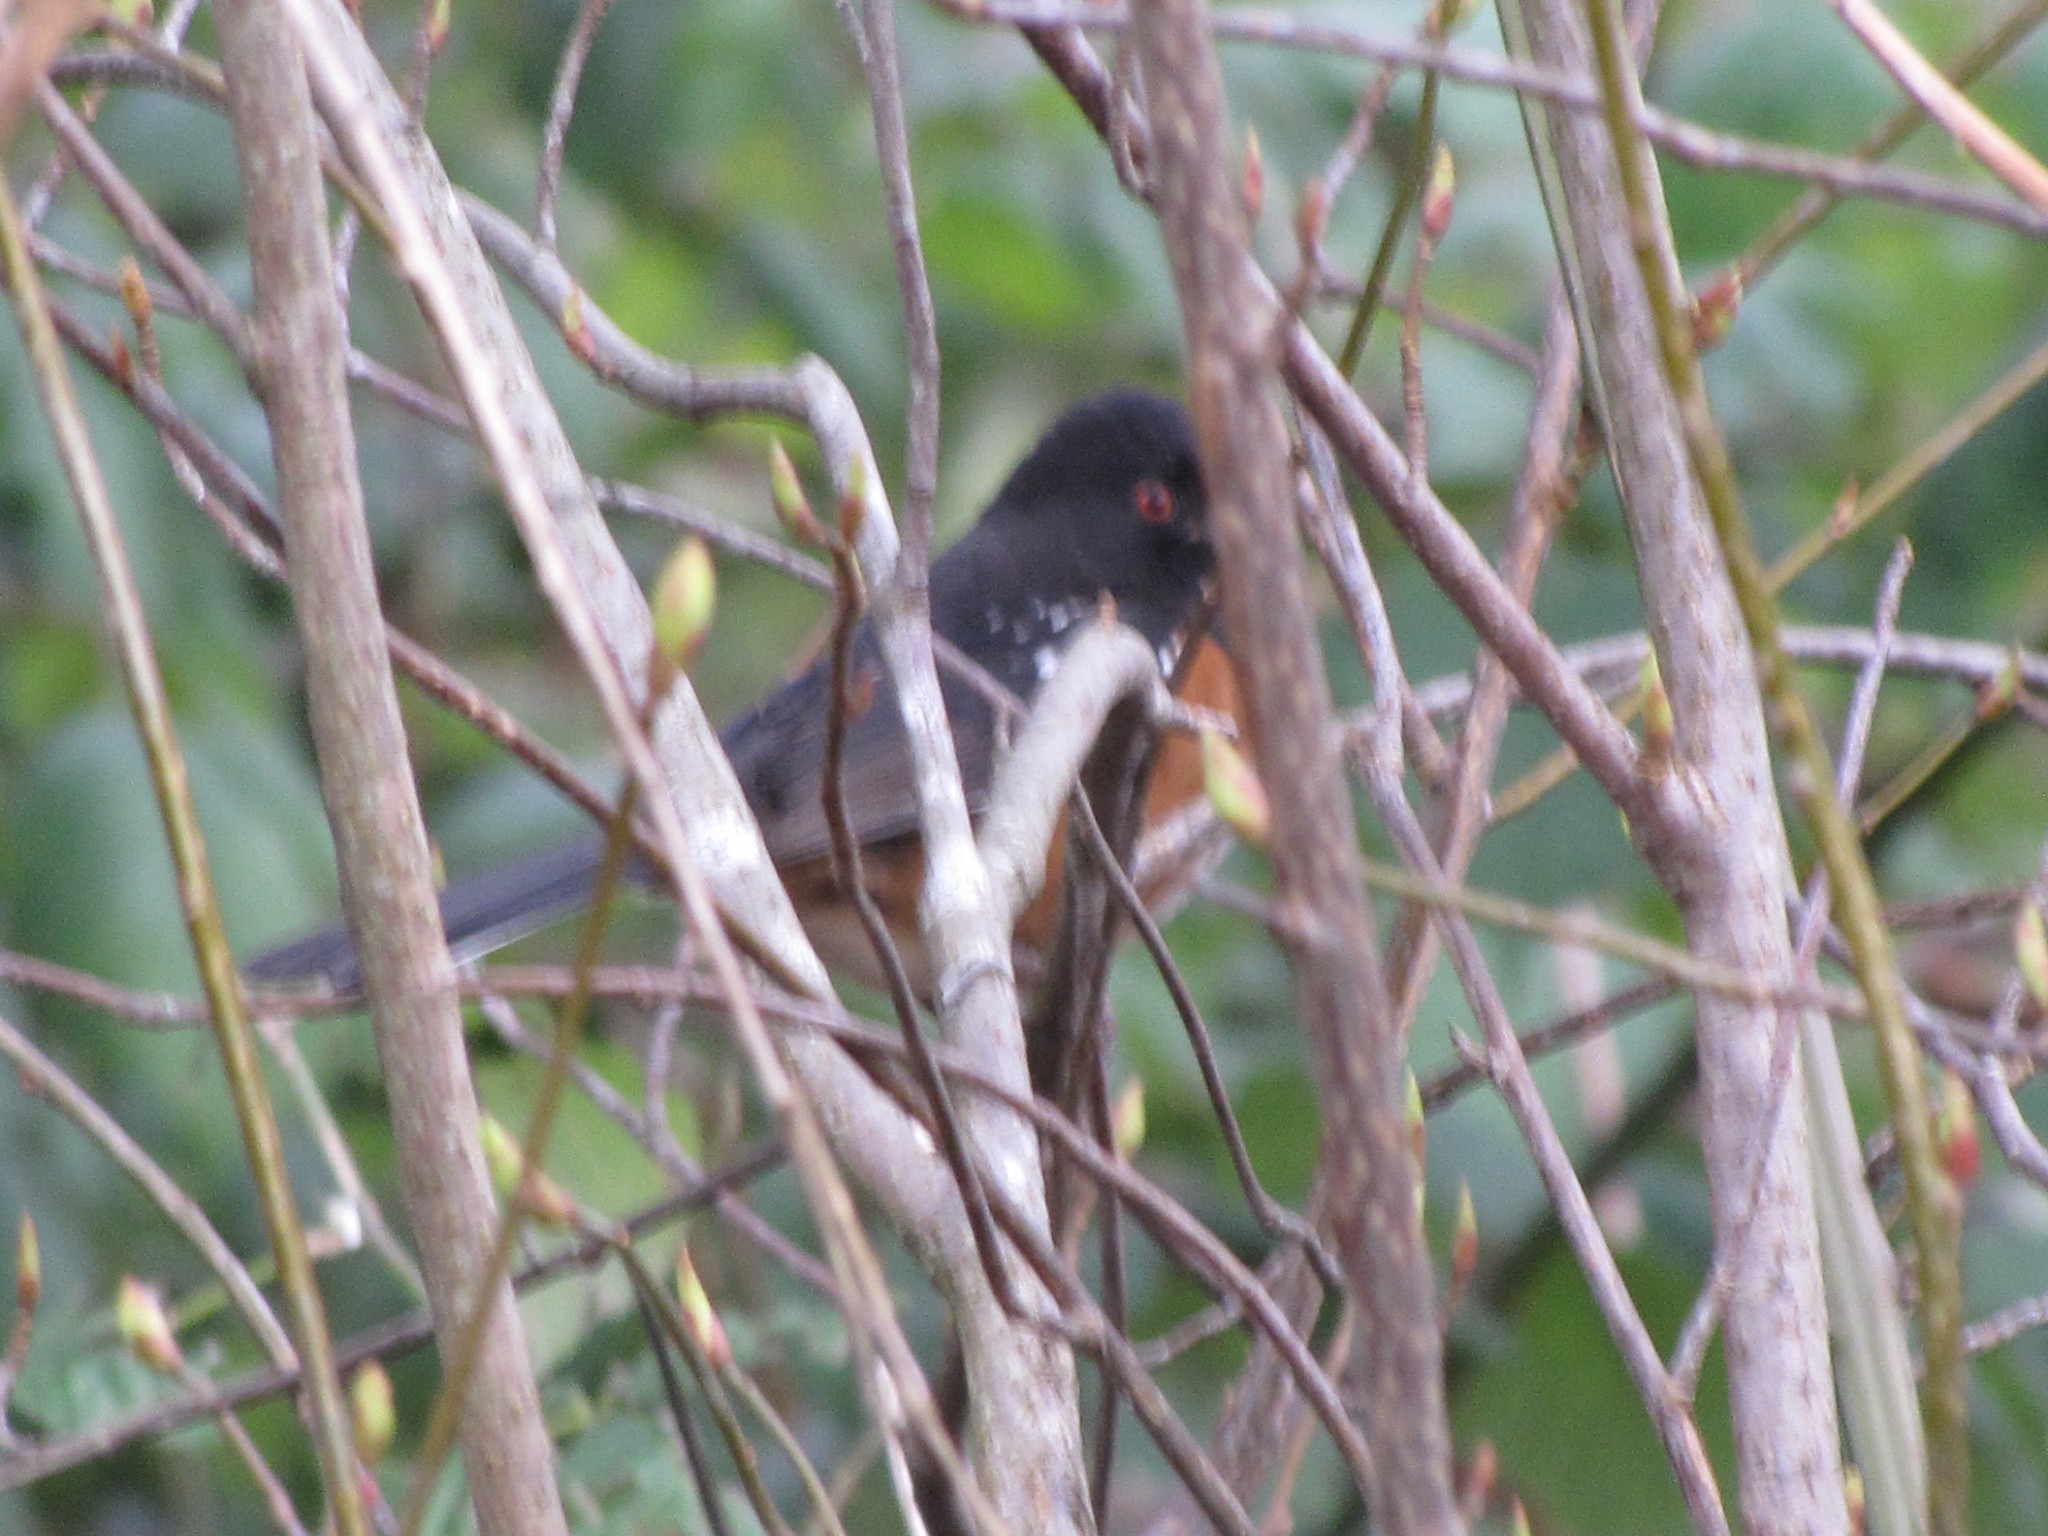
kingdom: Animalia
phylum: Chordata
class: Aves
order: Passeriformes
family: Passerellidae
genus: Pipilo
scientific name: Pipilo maculatus
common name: Spotted towhee
